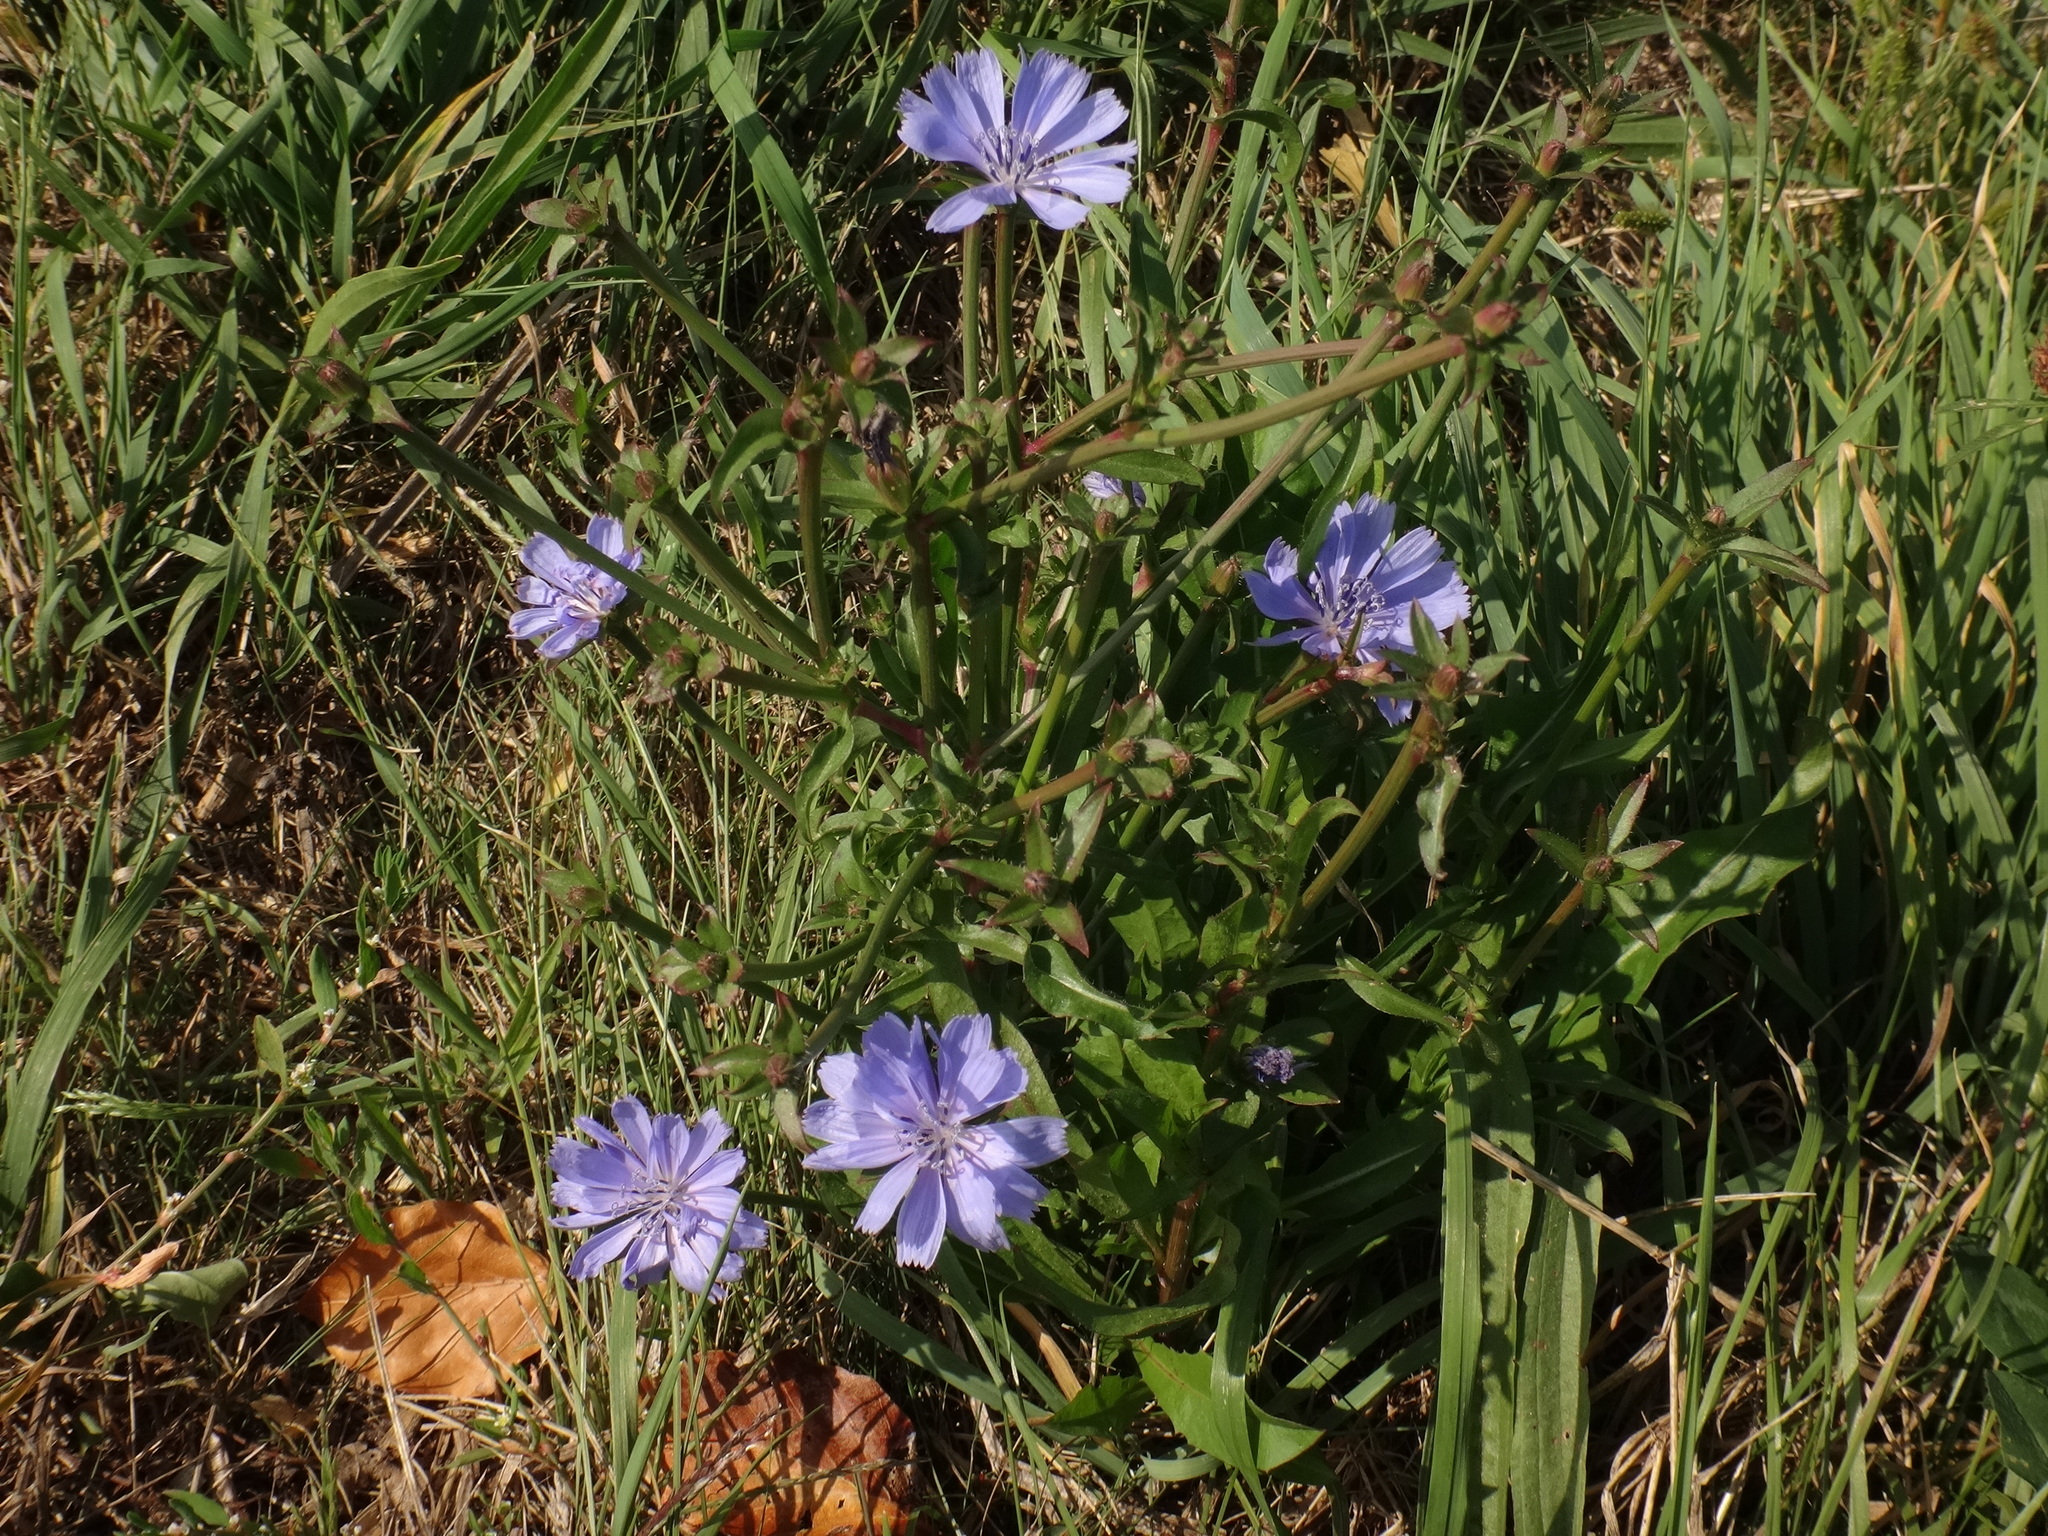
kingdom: Plantae
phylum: Tracheophyta
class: Magnoliopsida
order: Asterales
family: Asteraceae
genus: Cichorium
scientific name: Cichorium intybus
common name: Chicory
